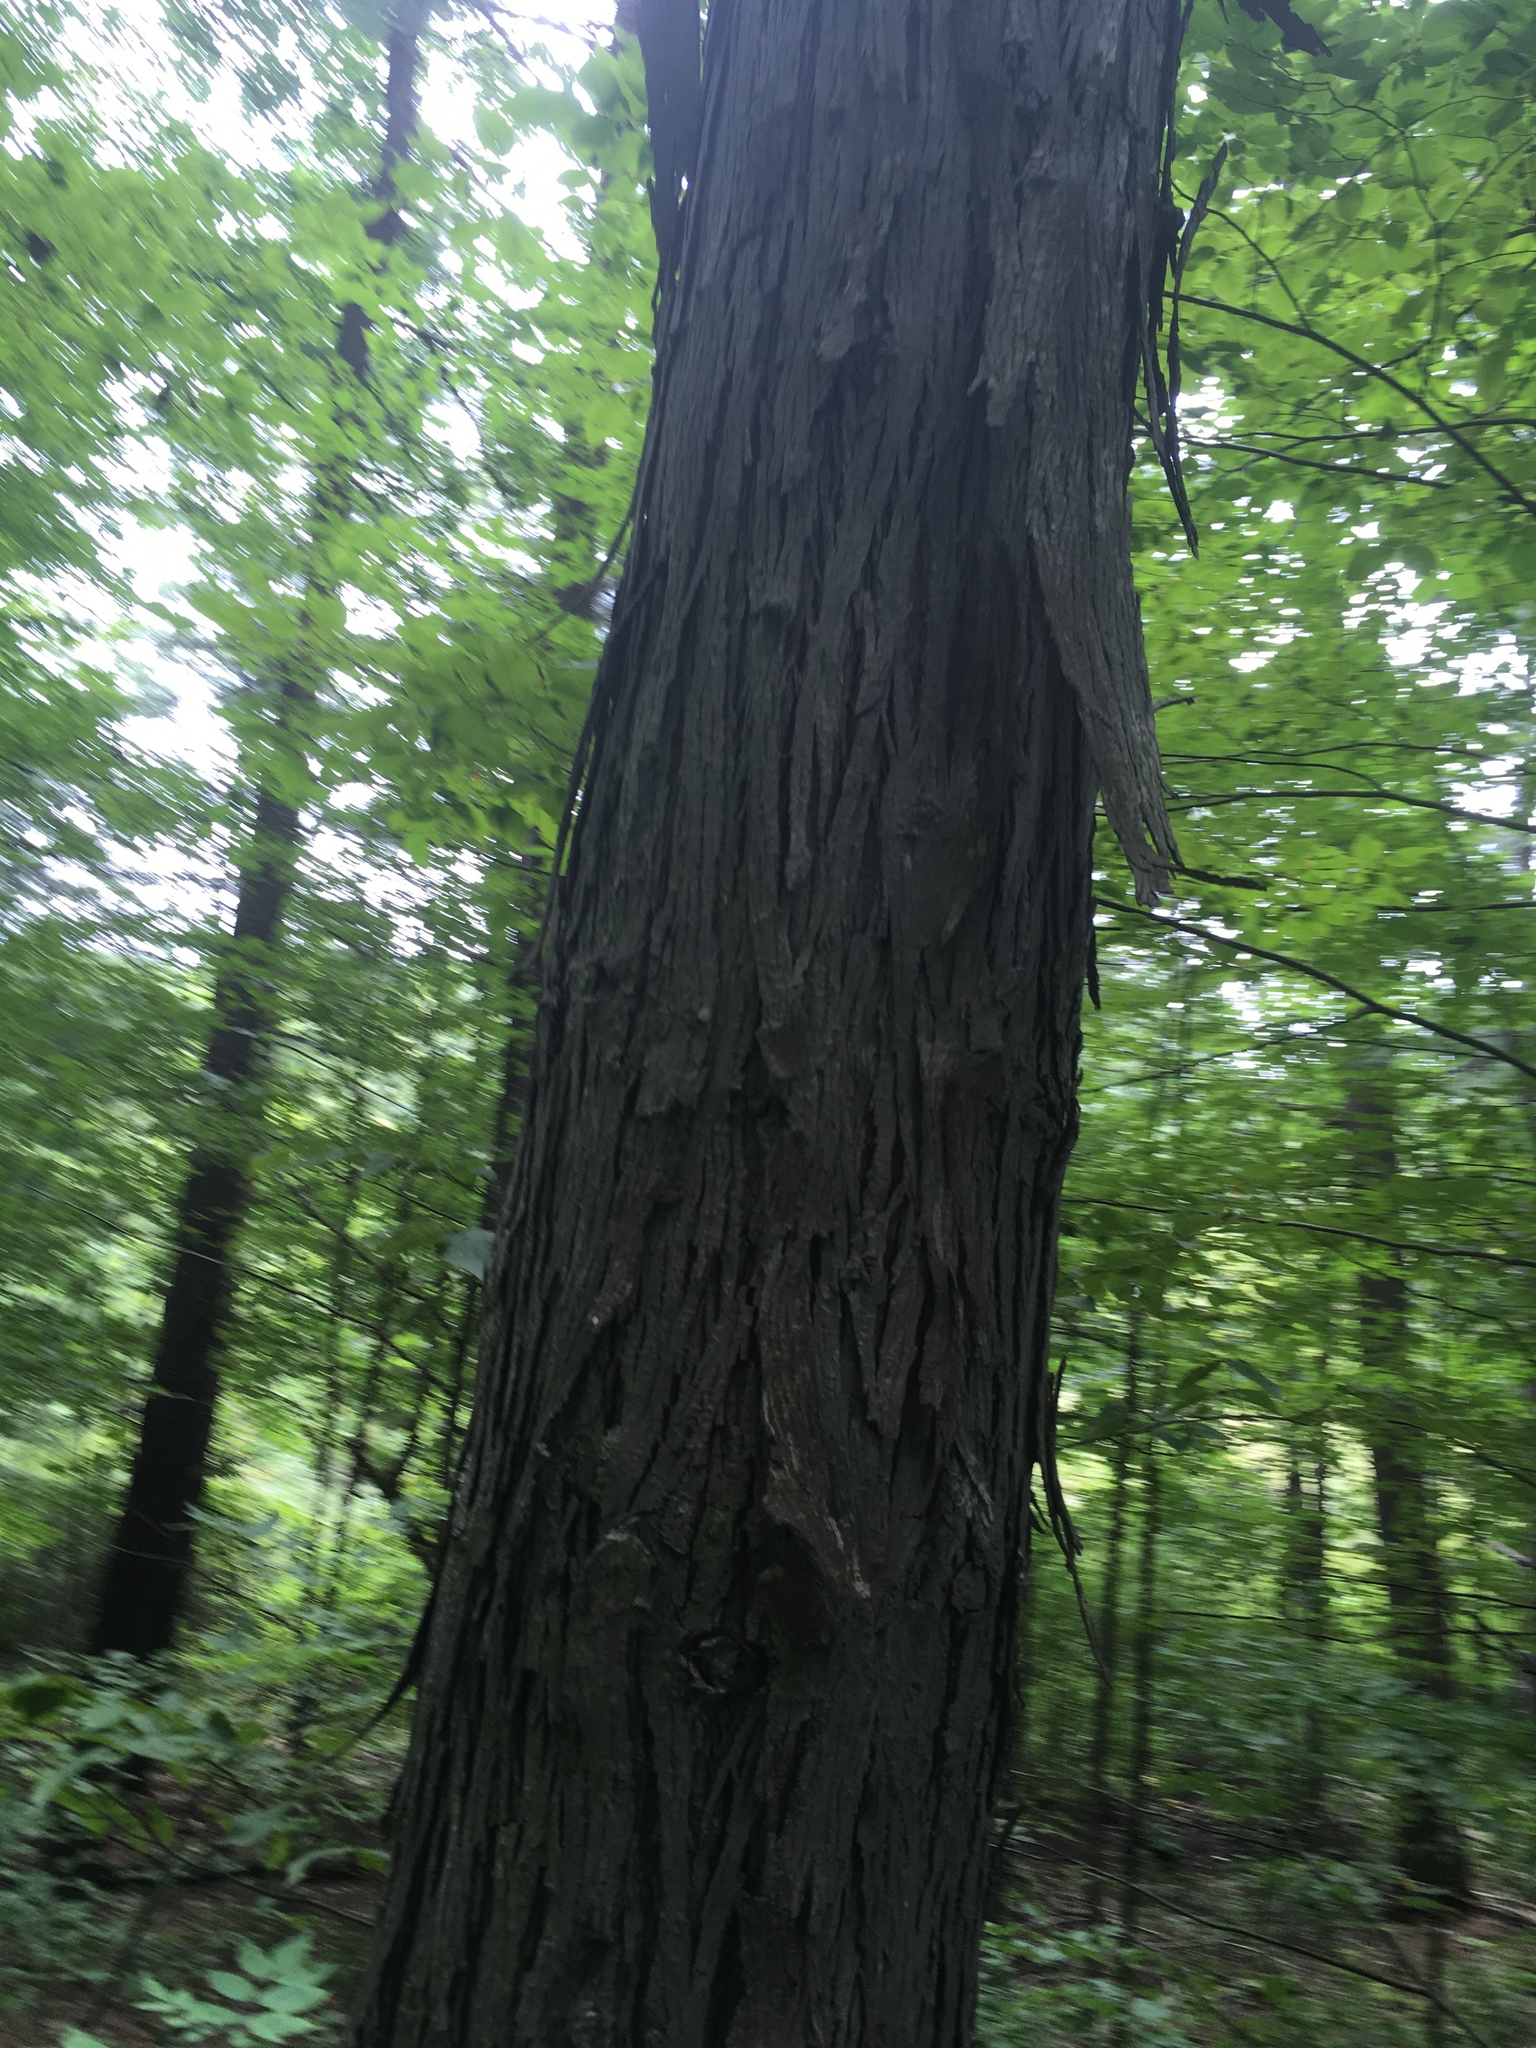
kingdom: Plantae
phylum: Tracheophyta
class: Magnoliopsida
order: Fagales
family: Juglandaceae
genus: Carya
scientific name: Carya ovata
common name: Shagbark hickory
